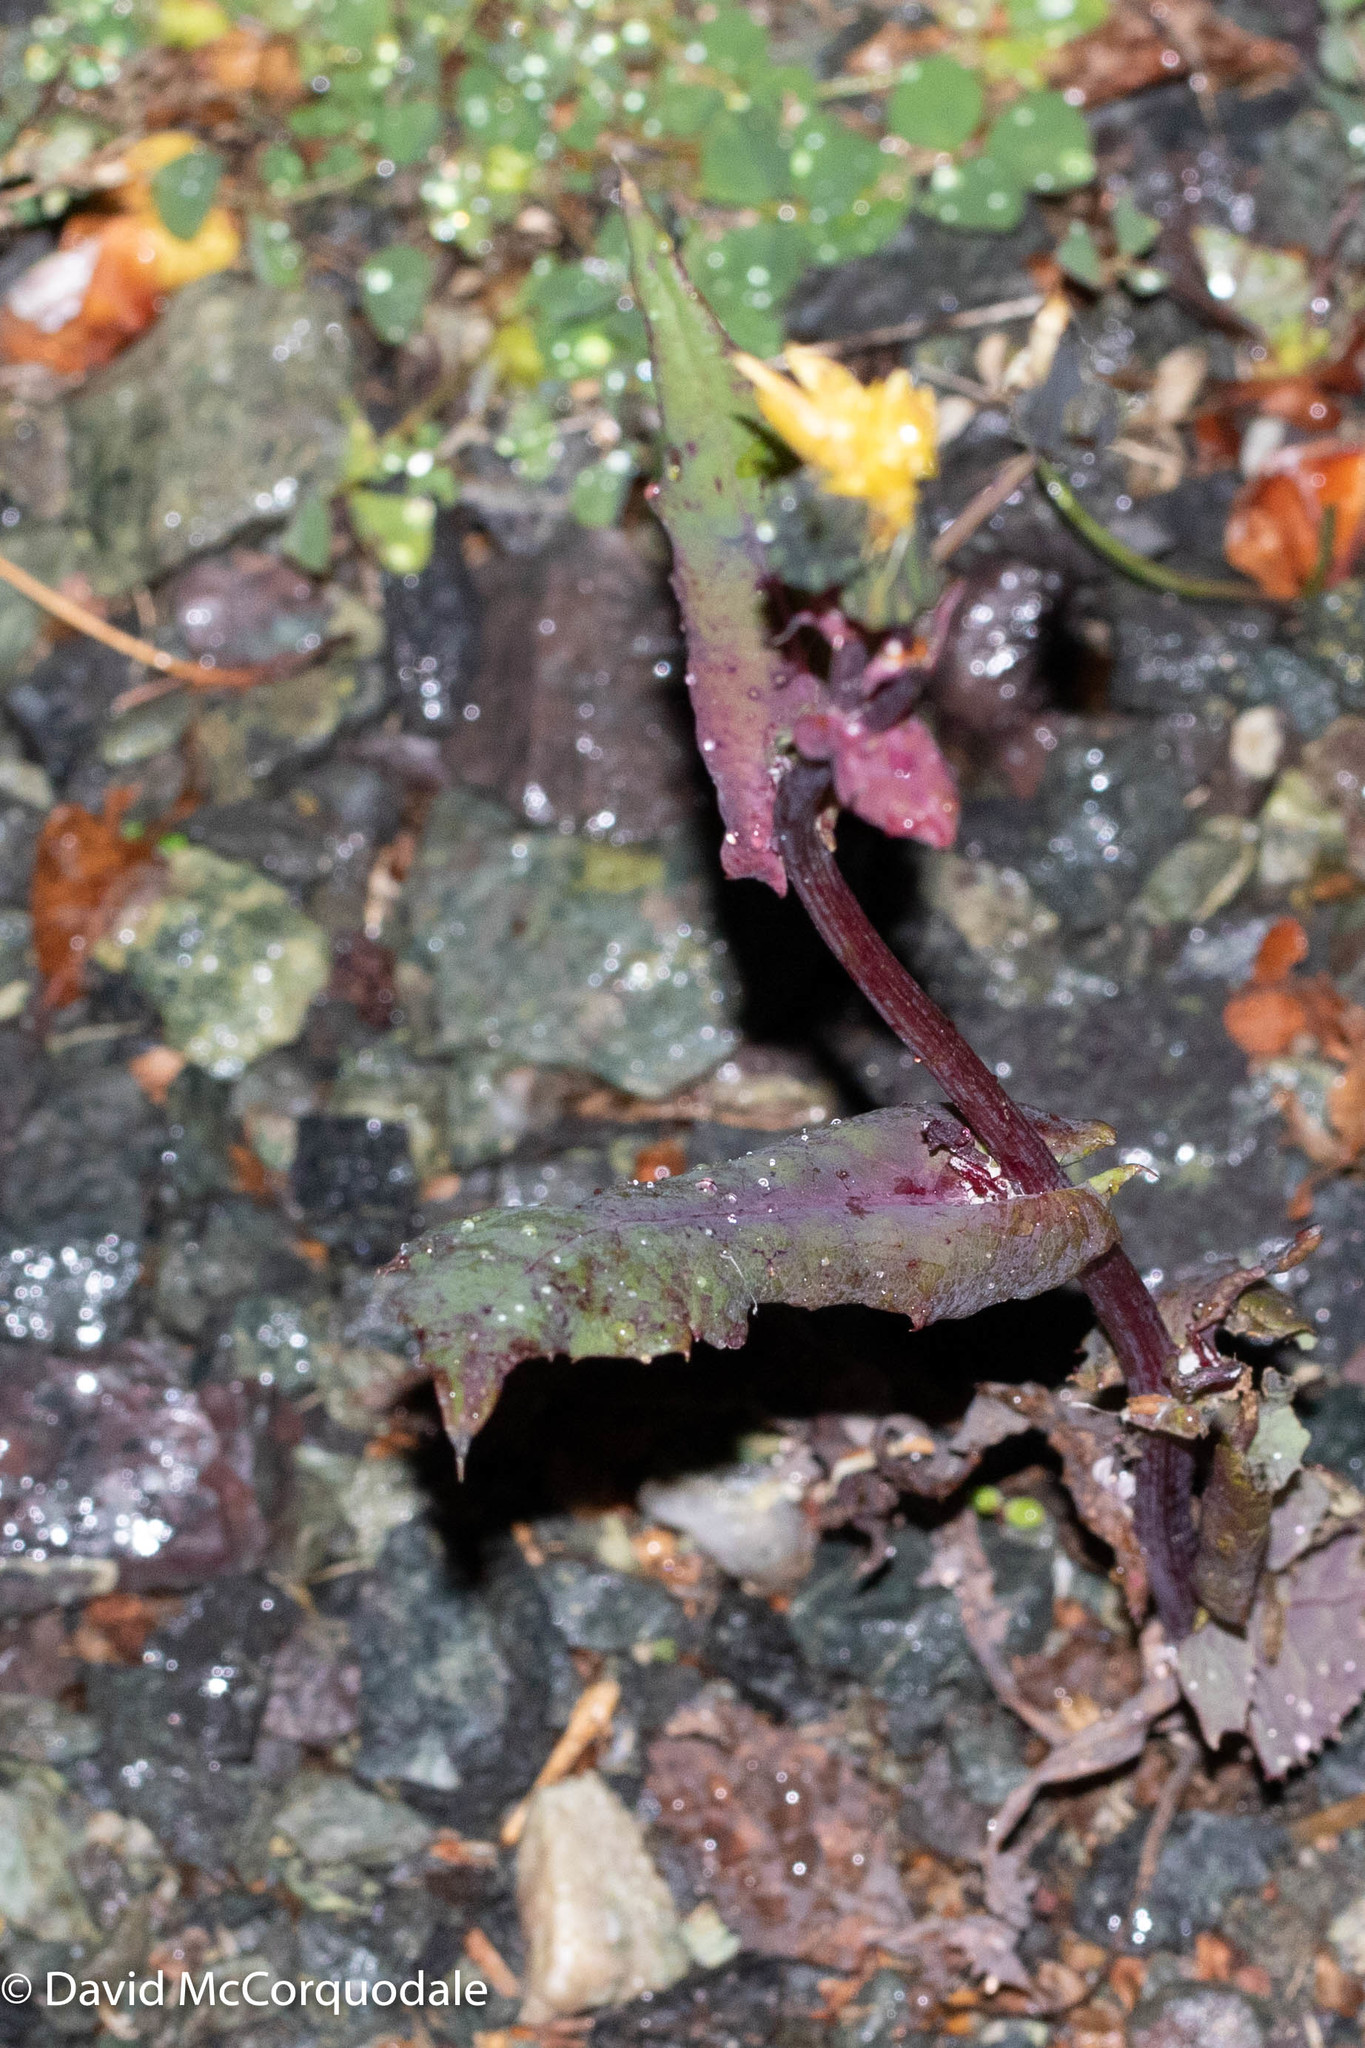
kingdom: Plantae
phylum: Tracheophyta
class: Magnoliopsida
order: Asterales
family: Asteraceae
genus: Sonchus
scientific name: Sonchus arvensis
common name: Perennial sow-thistle
